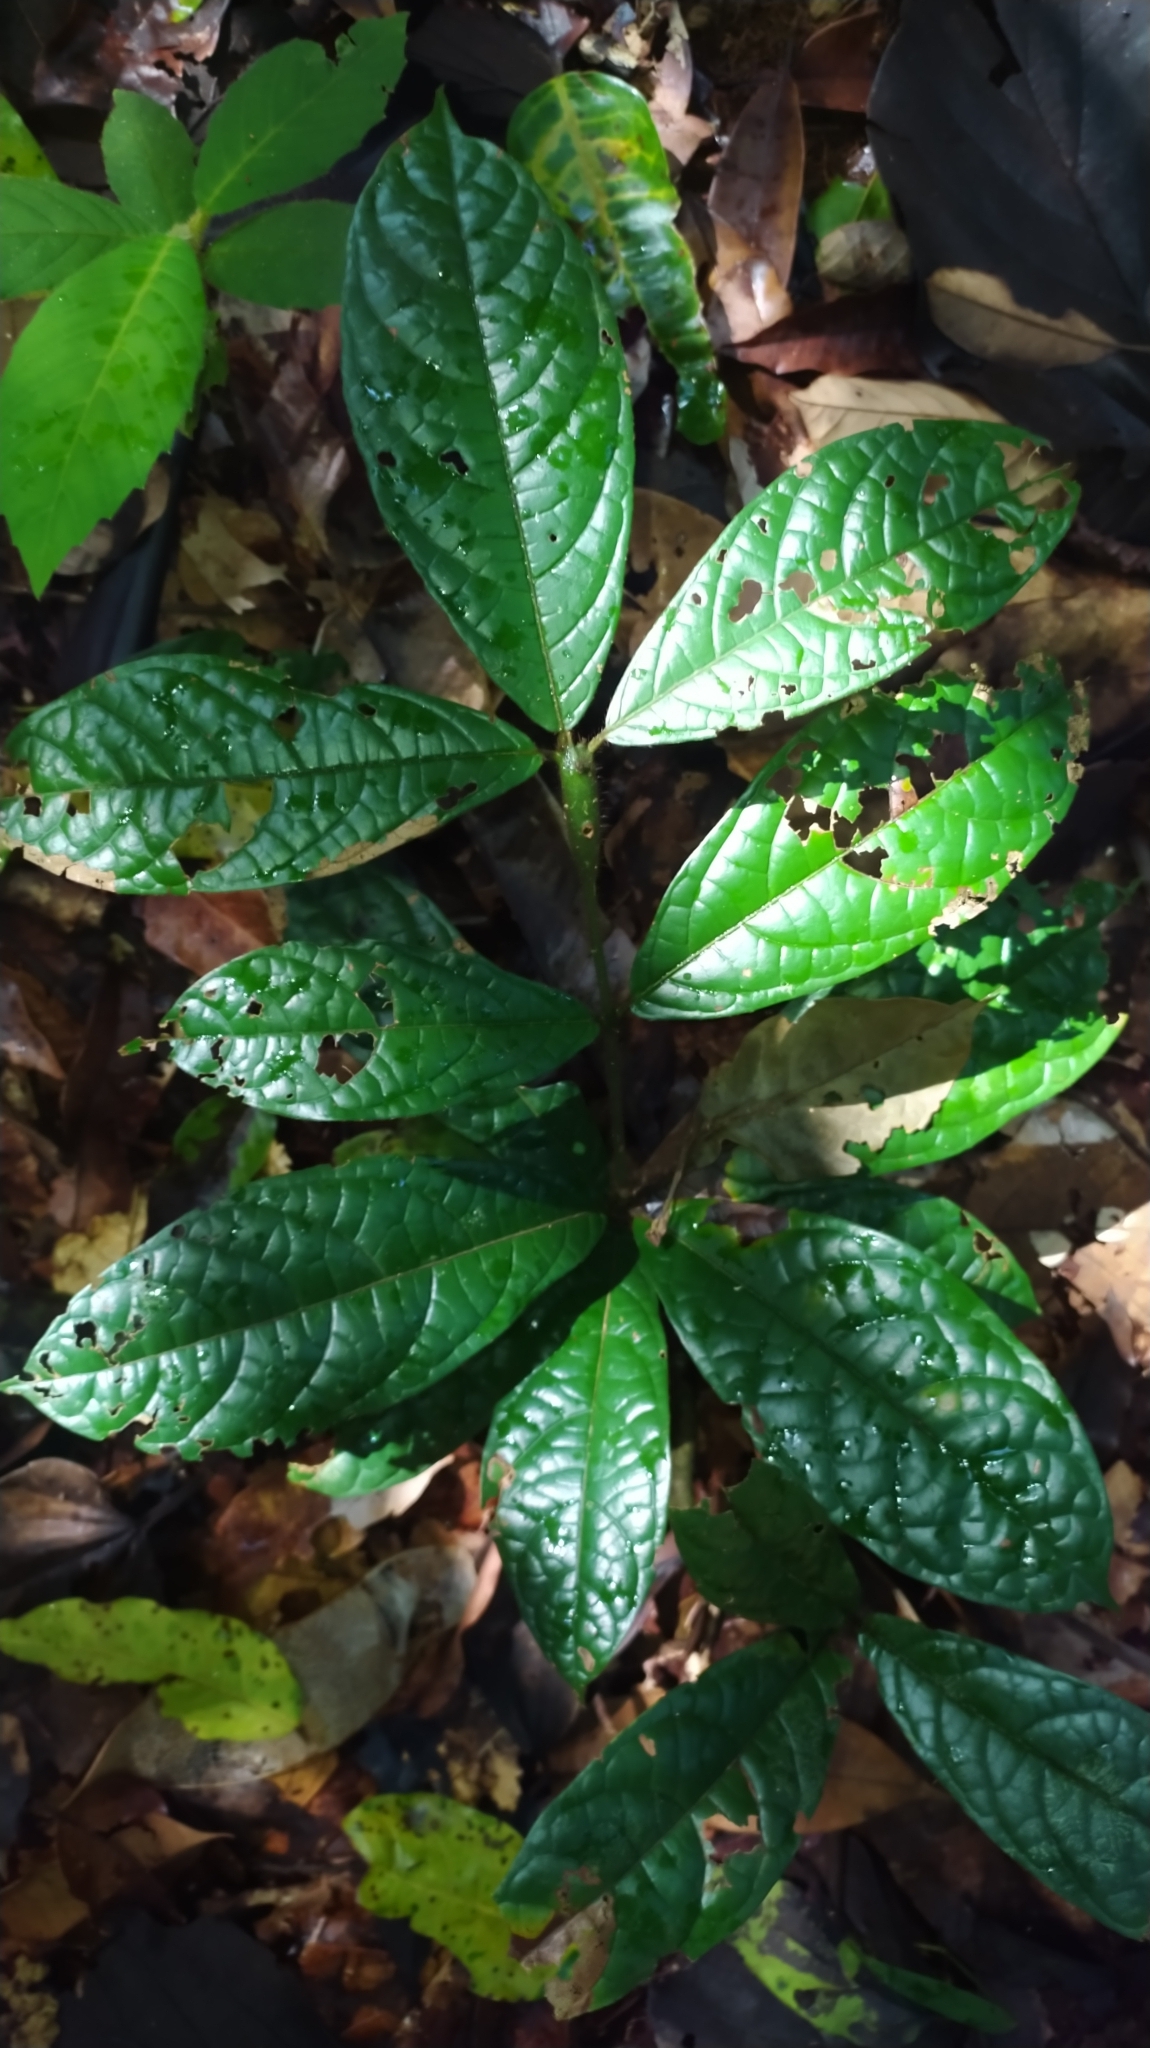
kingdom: Plantae
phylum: Tracheophyta
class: Magnoliopsida
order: Boraginales
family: Cordiaceae
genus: Cordia
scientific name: Cordia nodosa
